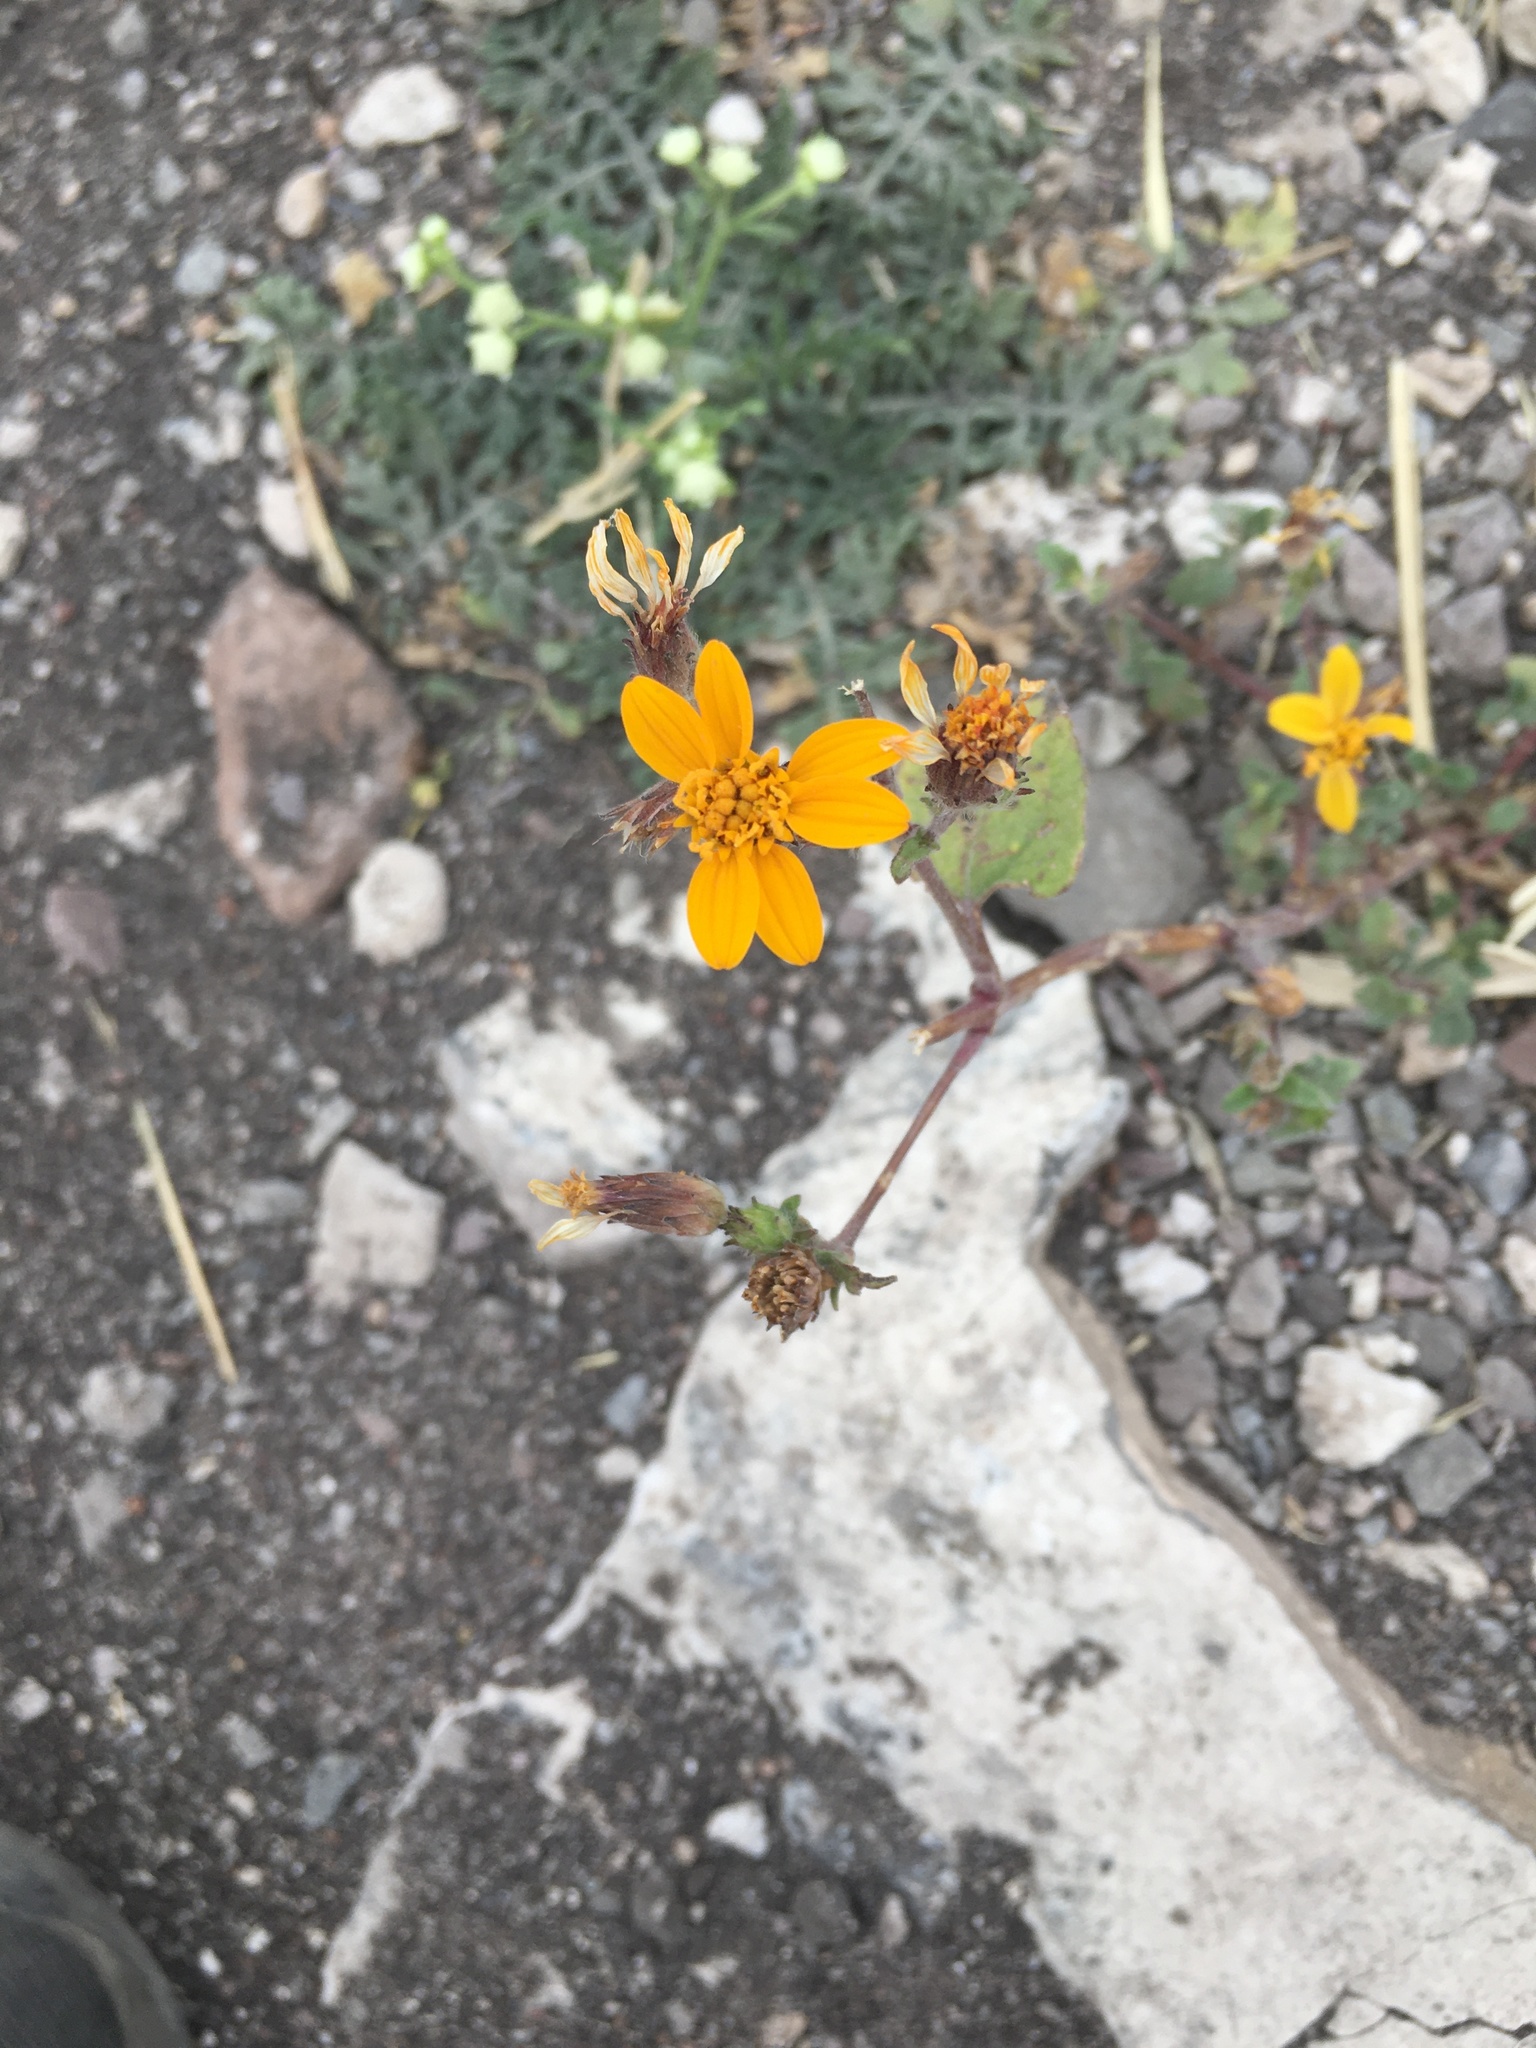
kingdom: Plantae
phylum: Tracheophyta
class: Magnoliopsida
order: Asterales
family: Asteraceae
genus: Simsia
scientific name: Simsia lagasceiformis
